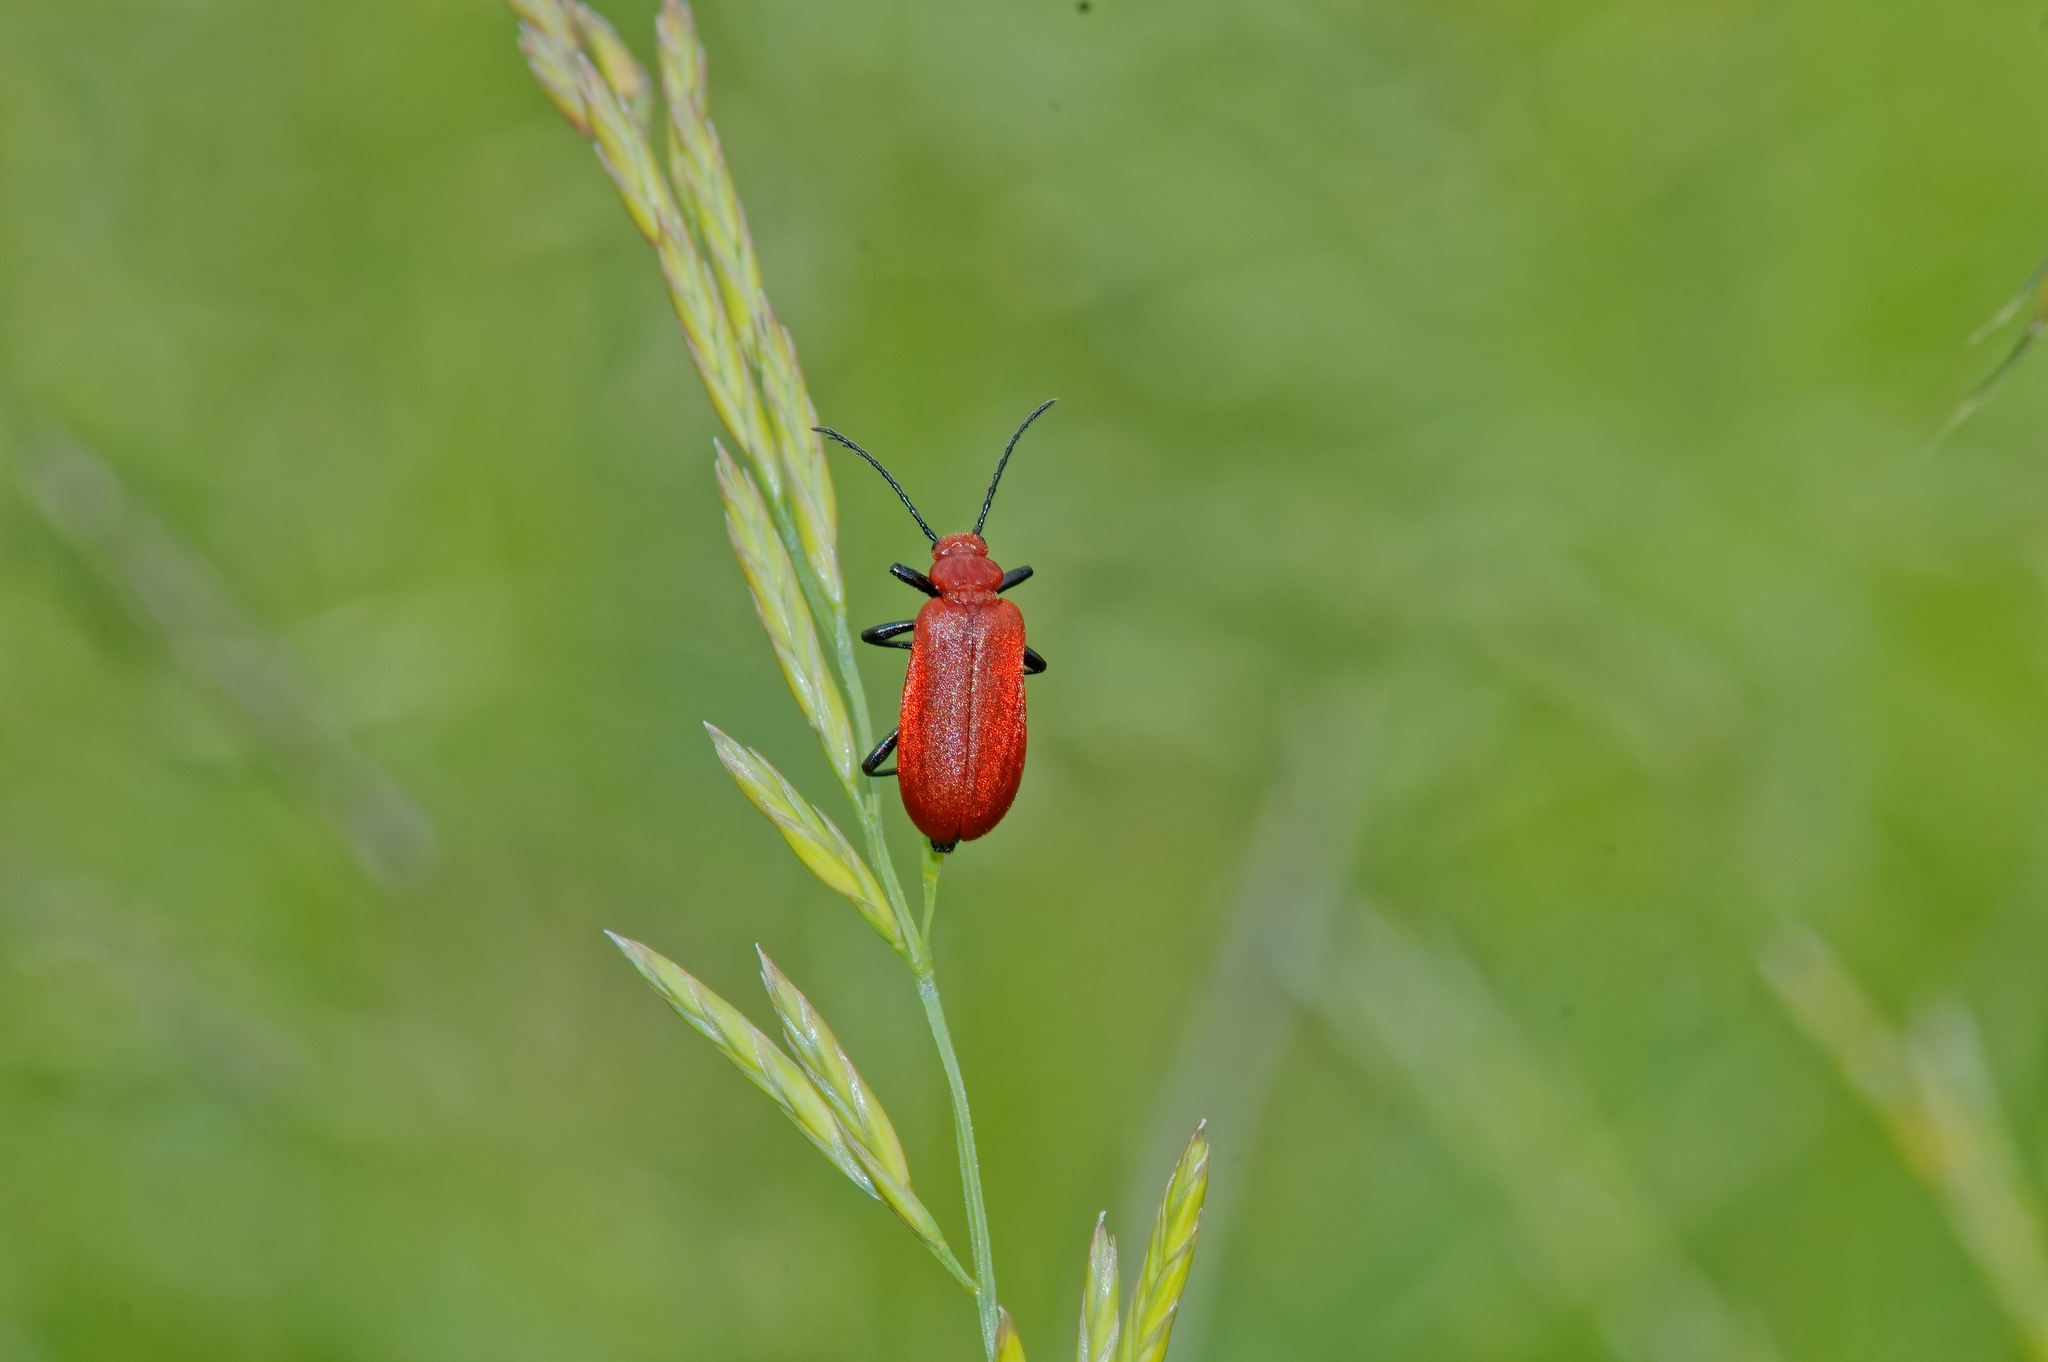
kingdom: Animalia
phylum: Arthropoda
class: Insecta
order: Coleoptera
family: Pyrochroidae
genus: Pyrochroa
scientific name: Pyrochroa serraticornis
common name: Red-headed cardinal beetle
